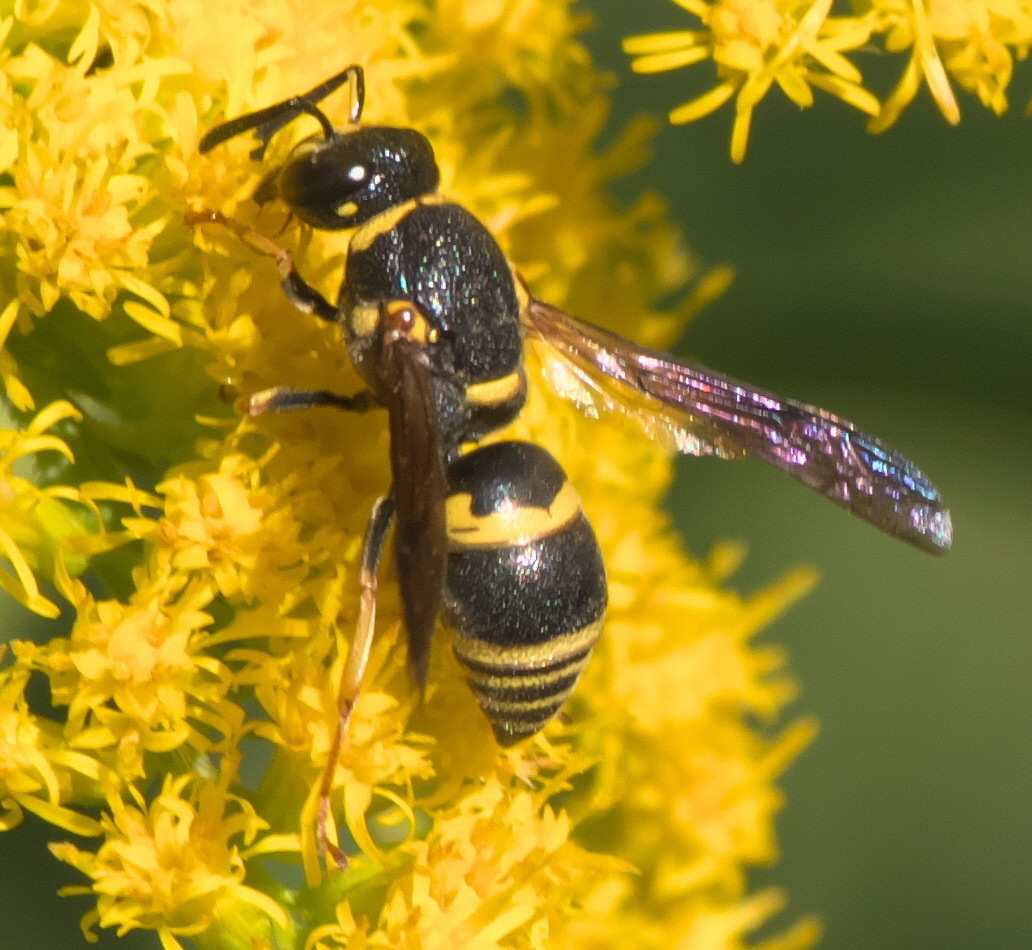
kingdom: Animalia
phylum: Arthropoda
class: Insecta
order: Hymenoptera
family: Eumenidae
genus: Euodynerus
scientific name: Euodynerus foraminatus
